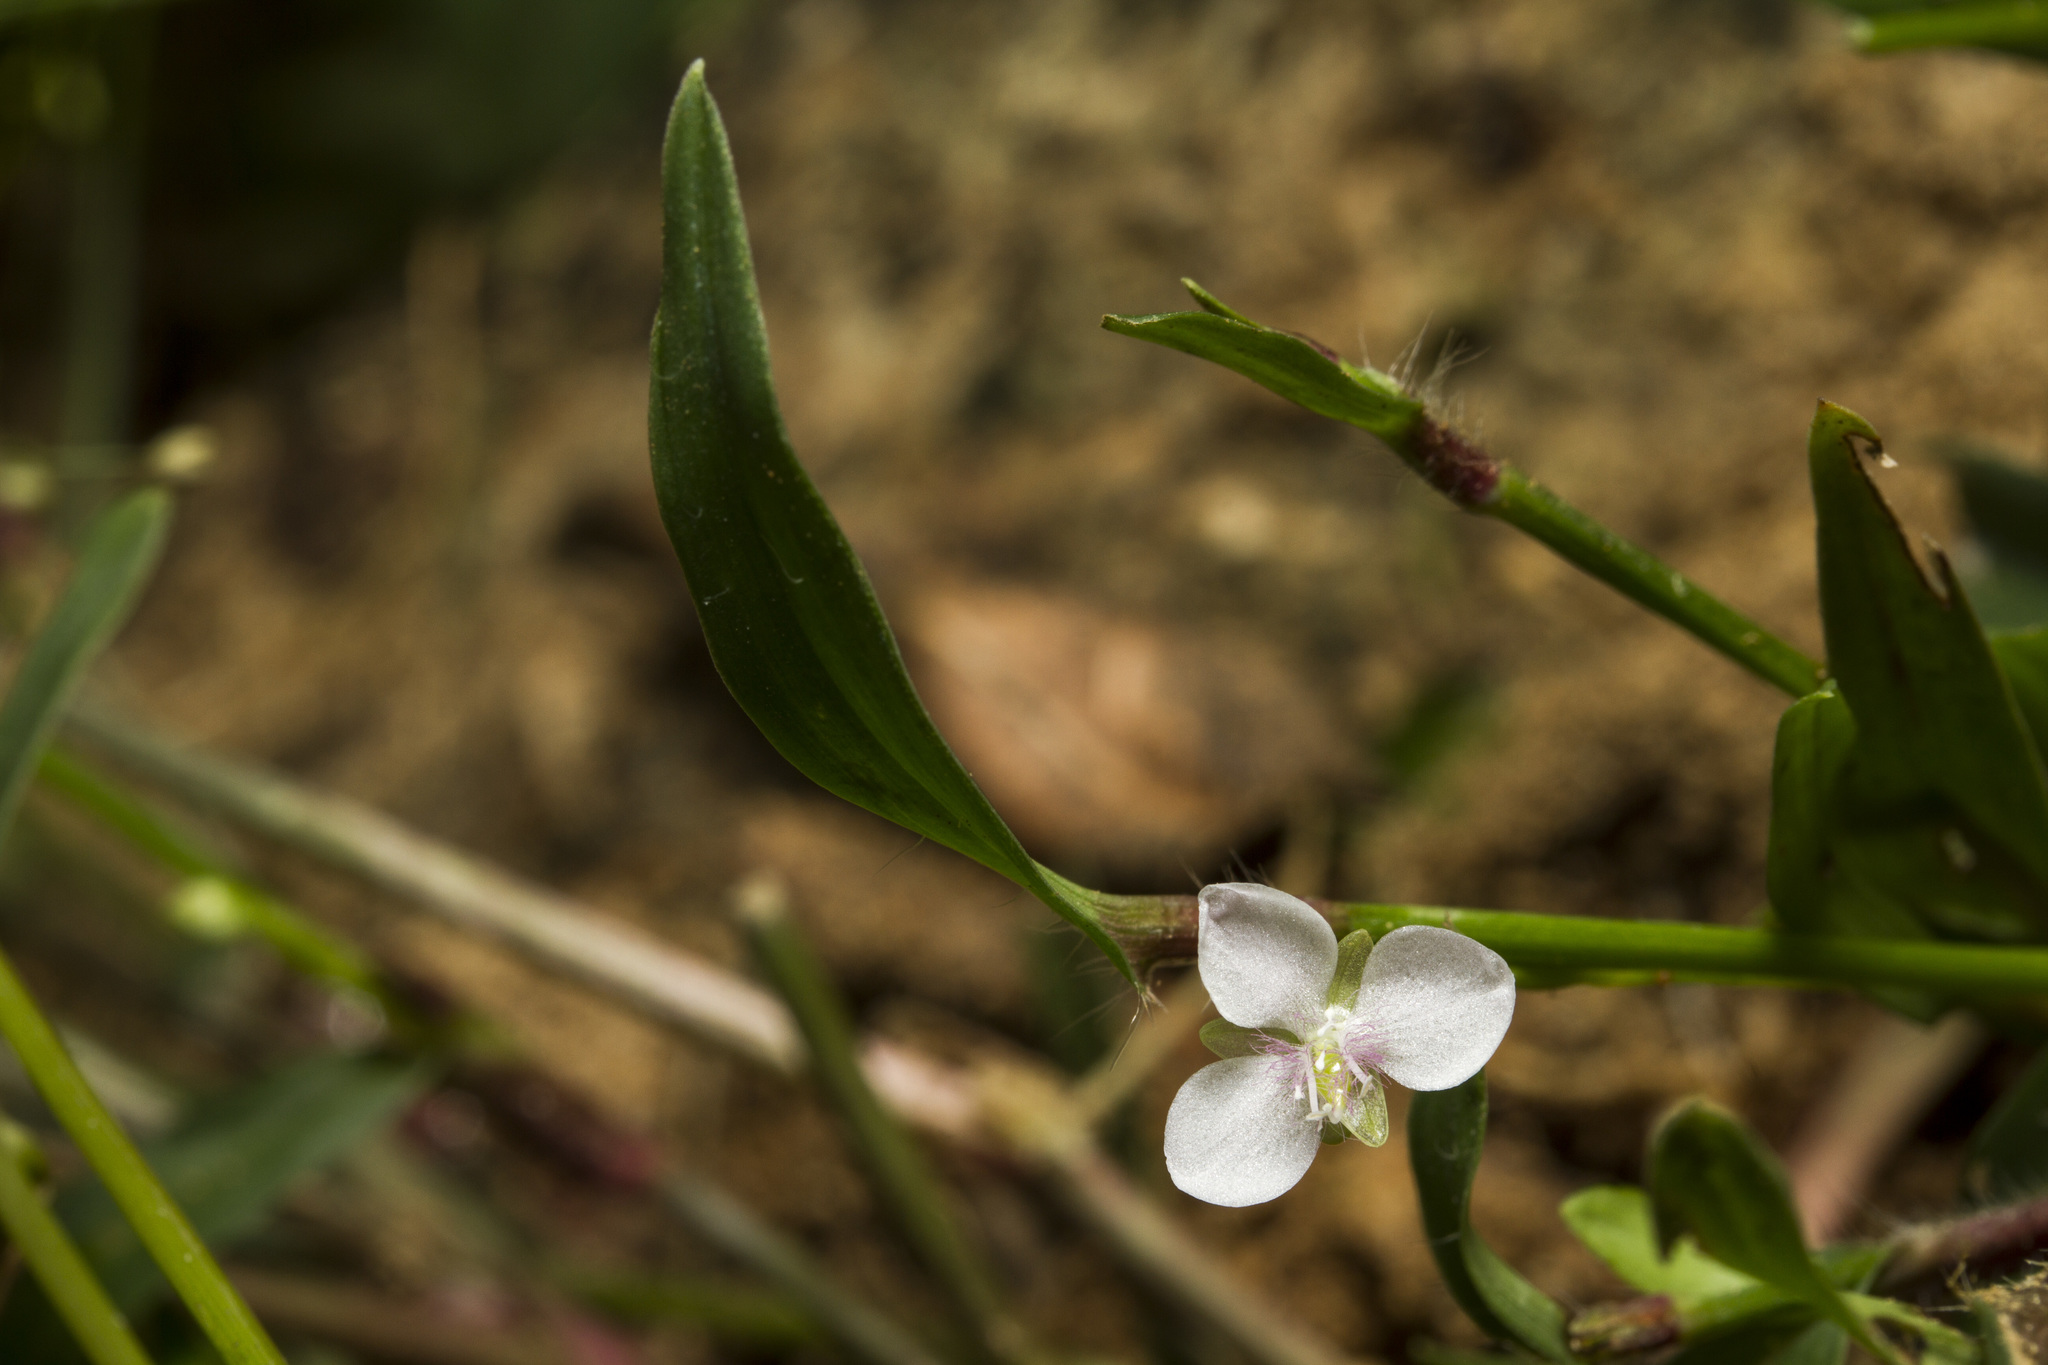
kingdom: Plantae
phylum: Tracheophyta
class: Liliopsida
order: Commelinales
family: Commelinaceae
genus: Murdannia
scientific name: Murdannia nudiflora
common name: Nakedstem dewflower
